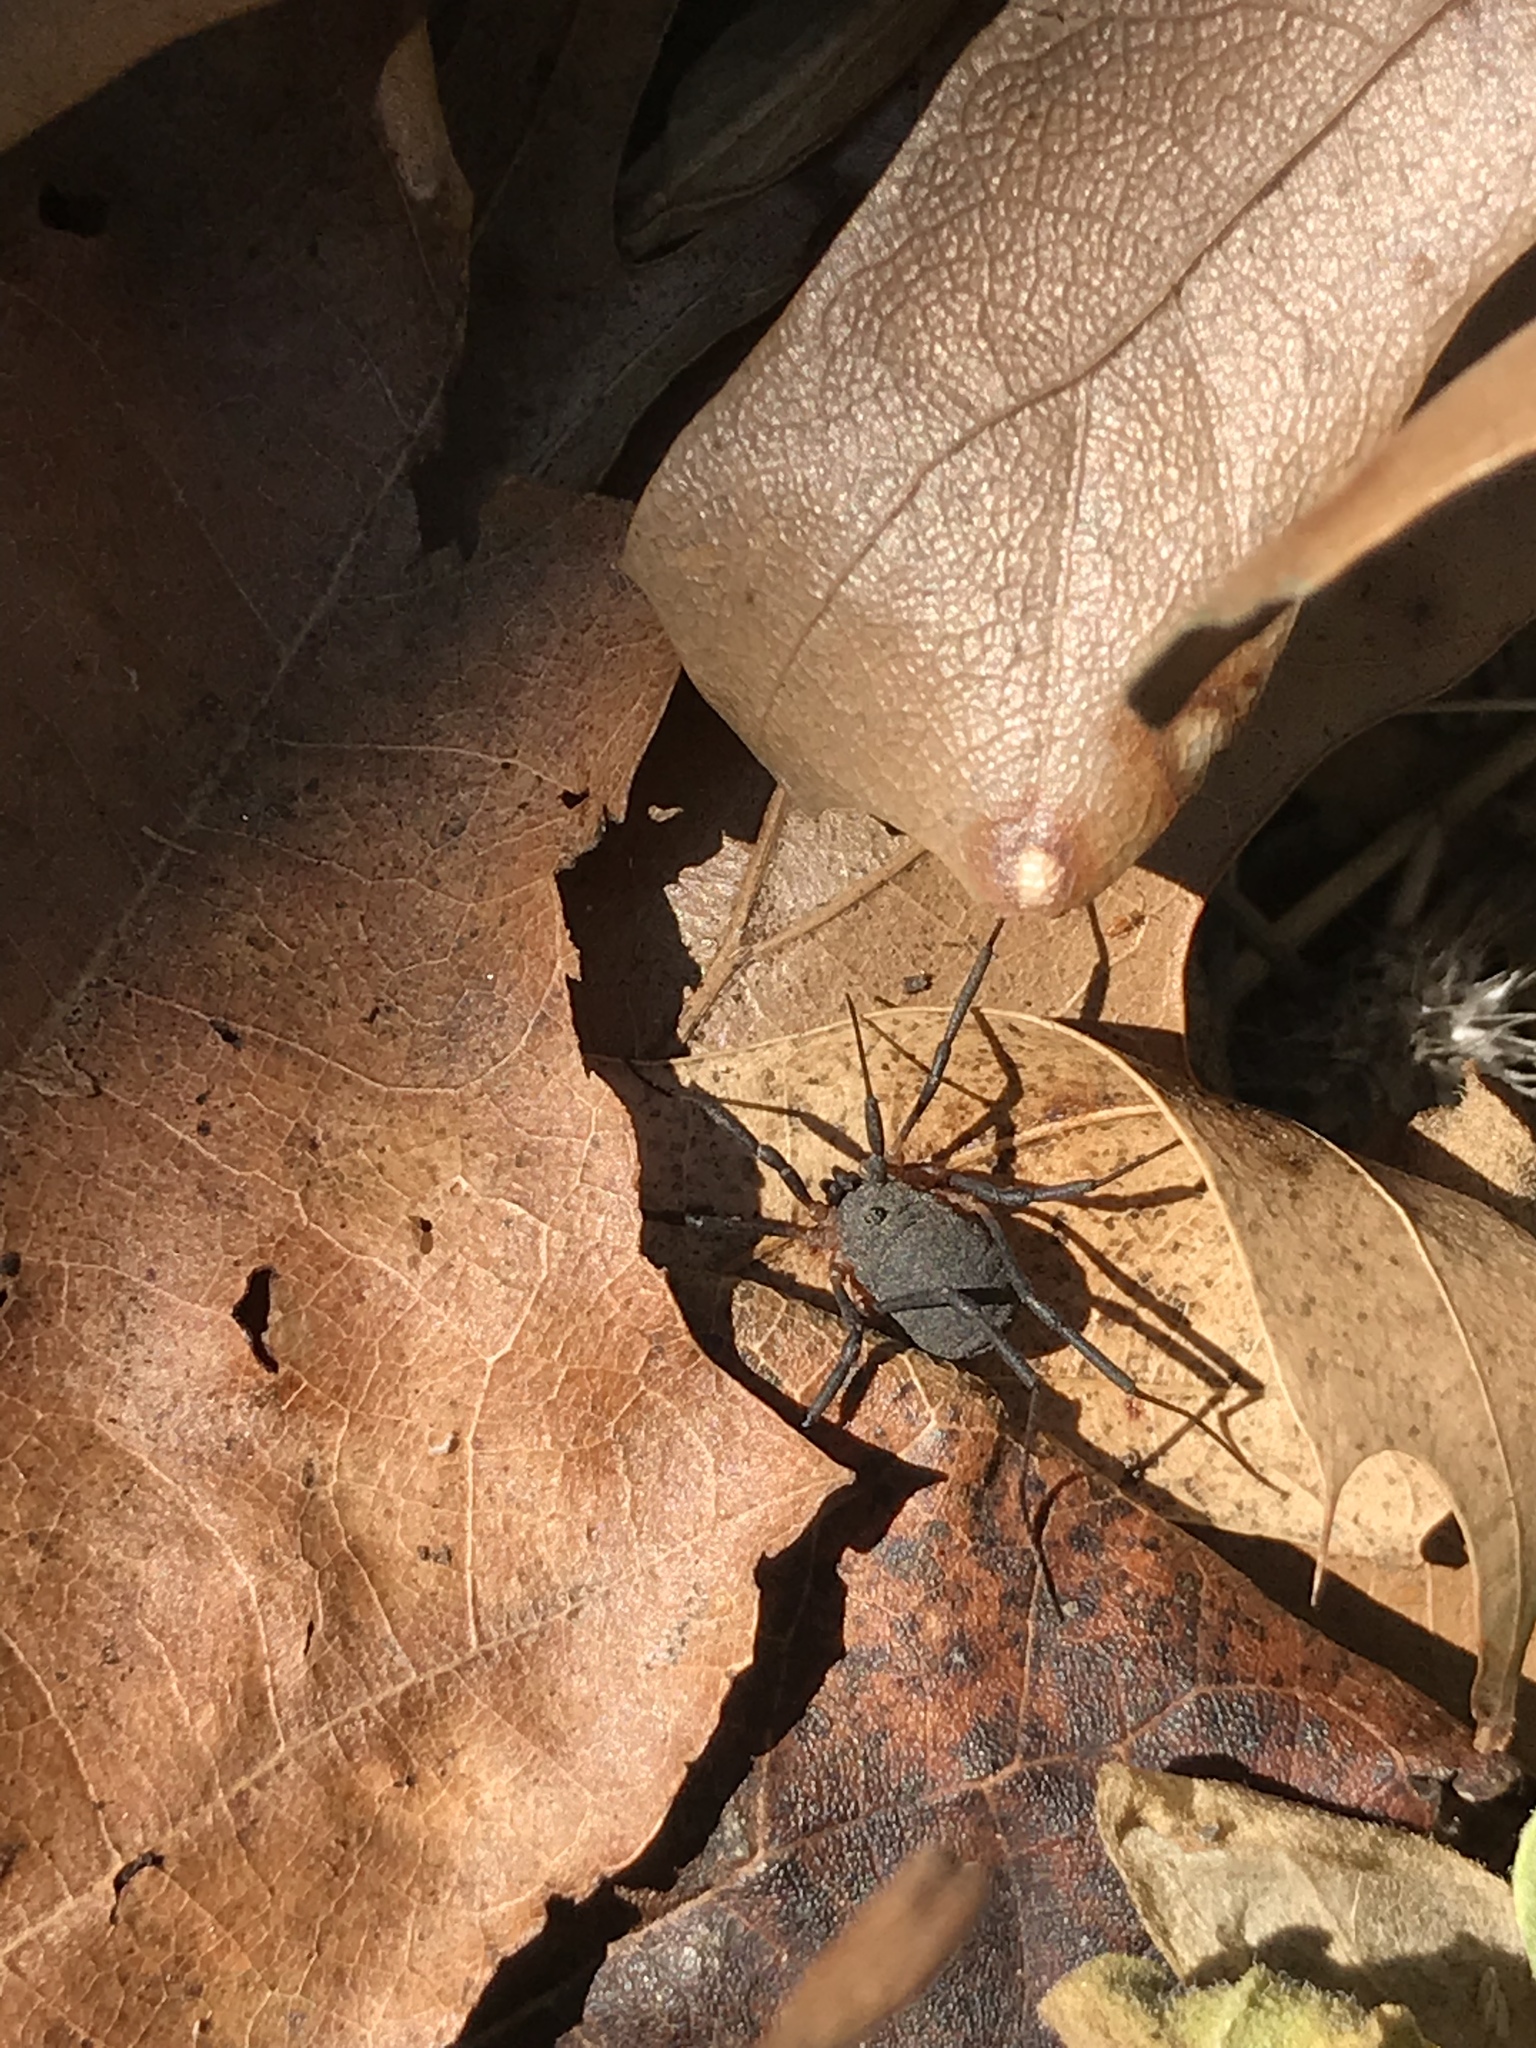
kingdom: Animalia
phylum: Arthropoda
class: Arachnida
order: Opiliones
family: Sclerosomatidae
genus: Eumesosoma
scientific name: Eumesosoma roeweri
